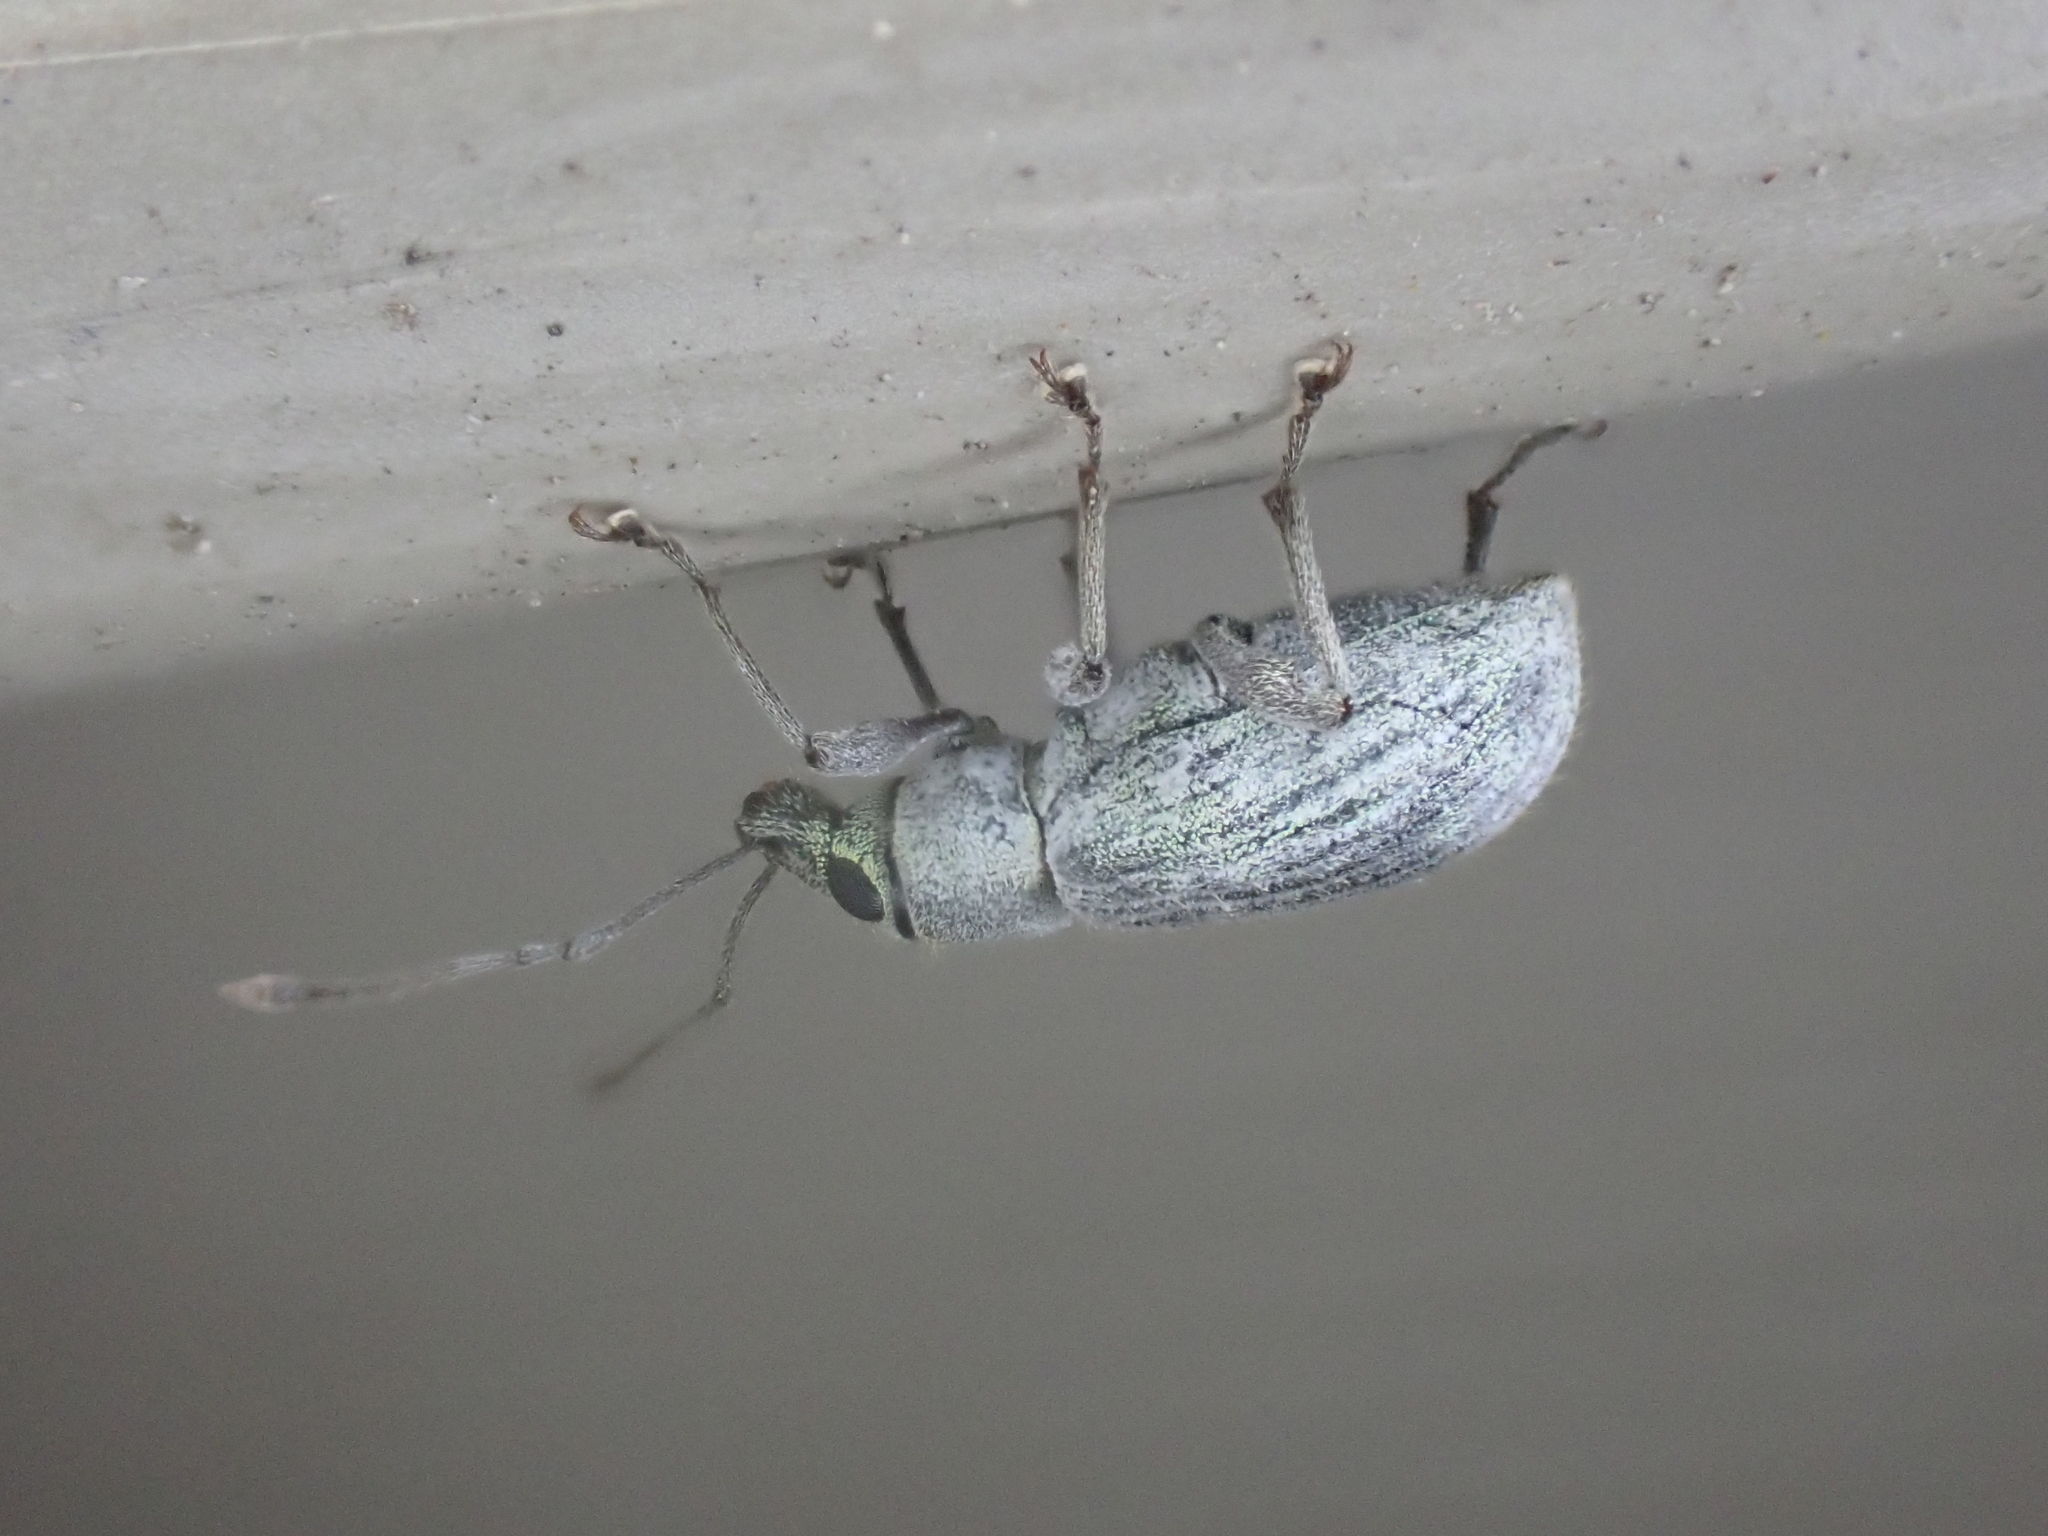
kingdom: Animalia
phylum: Arthropoda
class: Insecta
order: Coleoptera
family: Curculionidae
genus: Cyrtepistomus
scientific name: Cyrtepistomus castaneus
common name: Weevil
